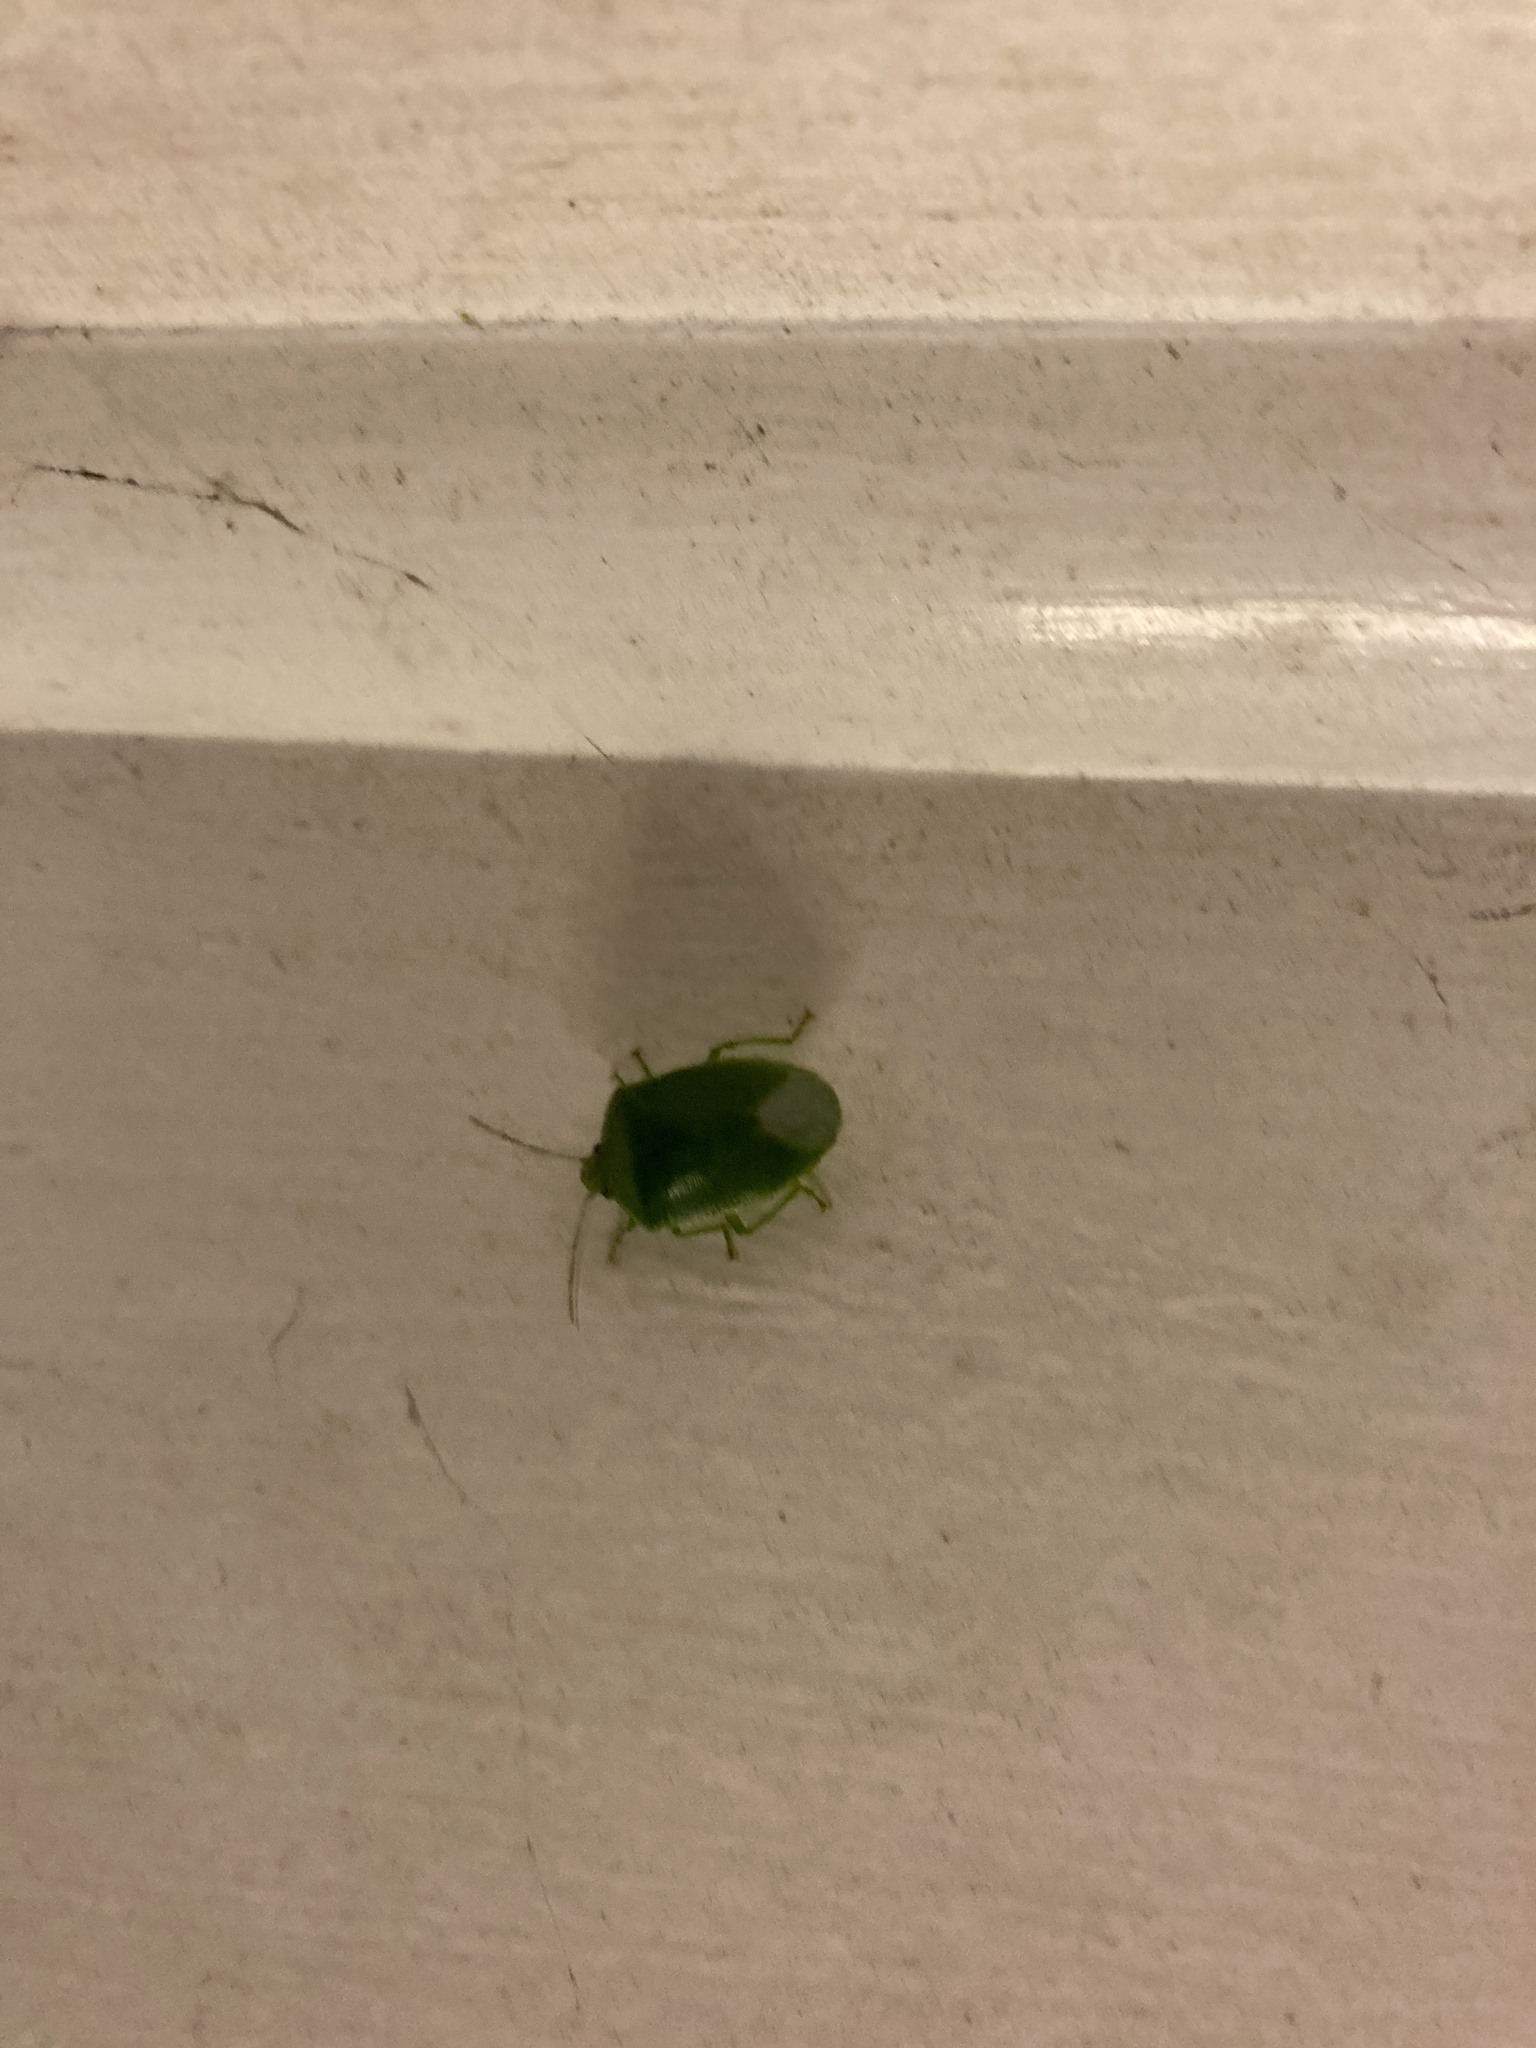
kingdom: Animalia
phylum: Arthropoda
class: Insecta
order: Hemiptera
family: Pentatomidae
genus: Glaucias
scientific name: Glaucias amyota
